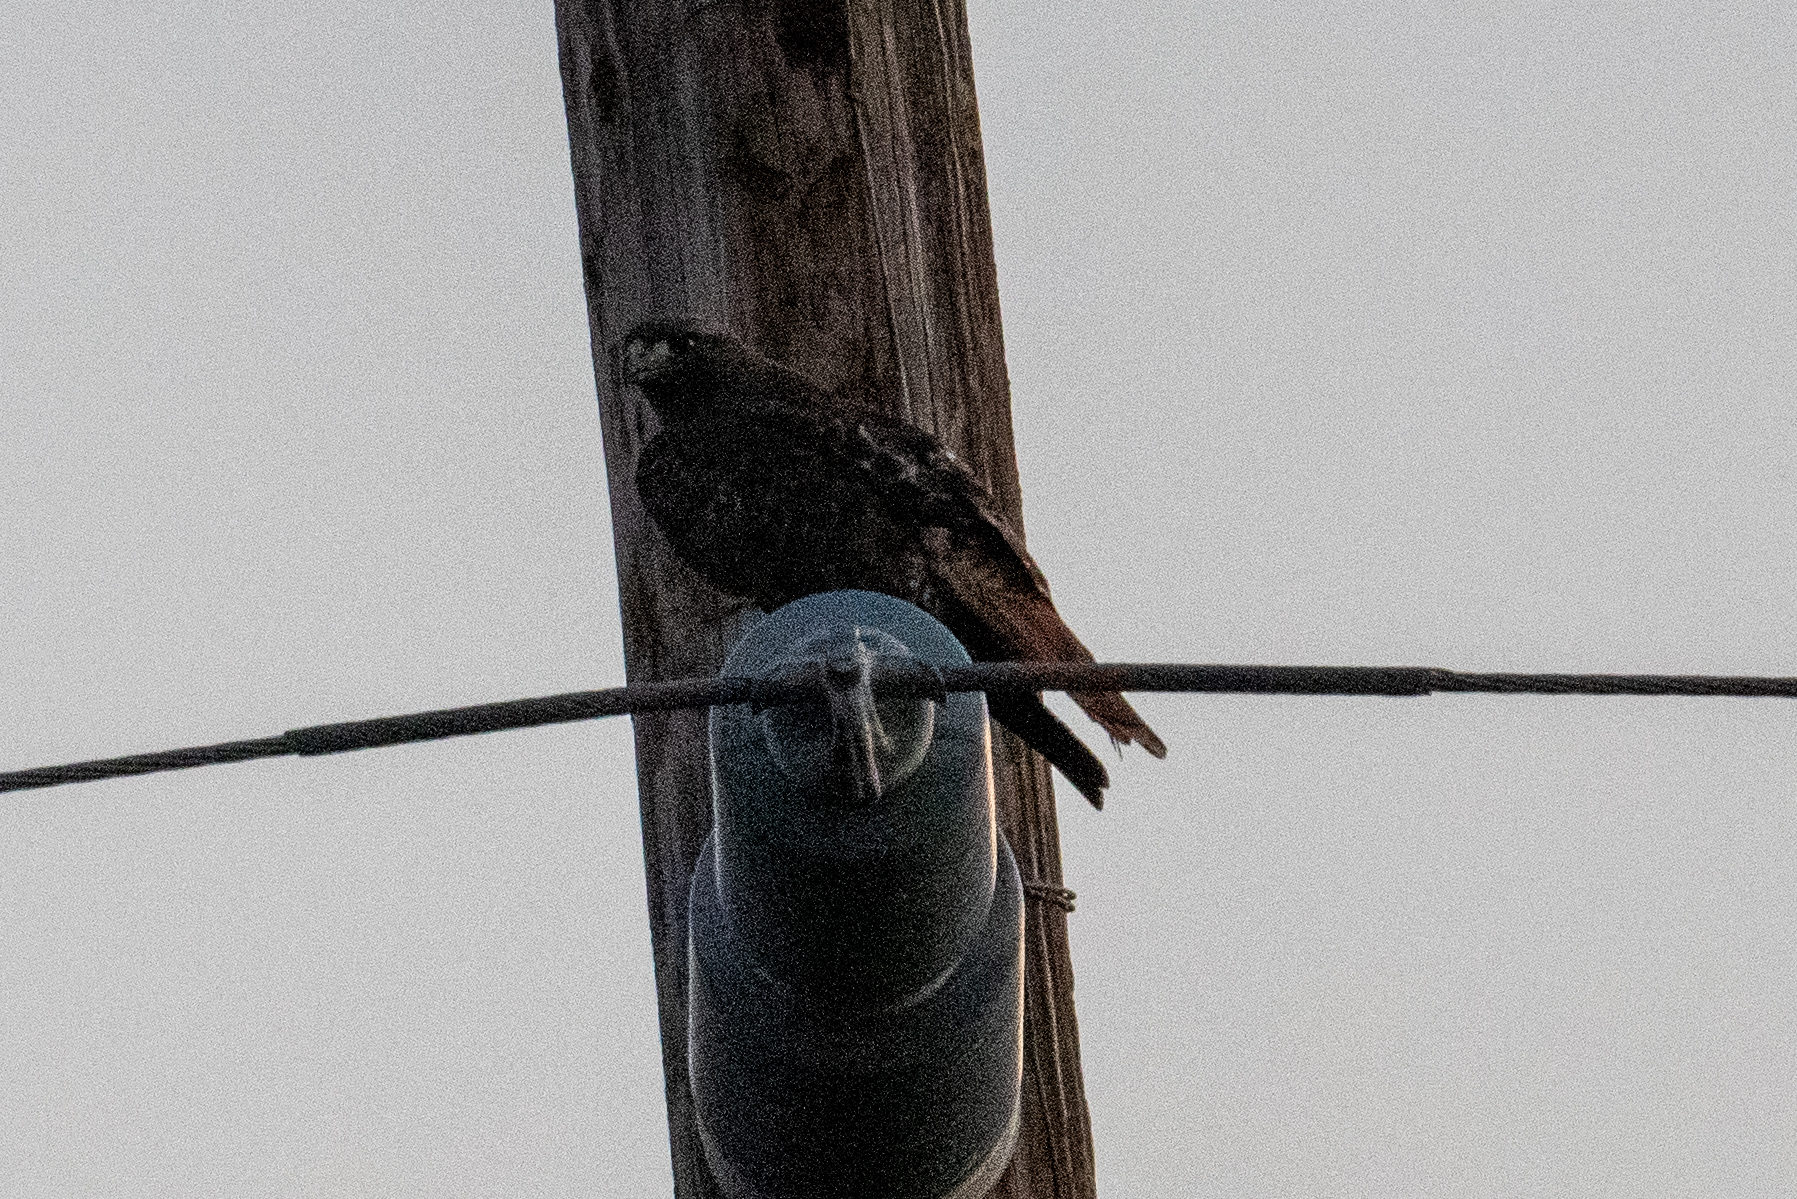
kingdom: Animalia
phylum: Chordata
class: Aves
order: Accipitriformes
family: Accipitridae
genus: Buteo
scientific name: Buteo jamaicensis
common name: Red-tailed hawk
